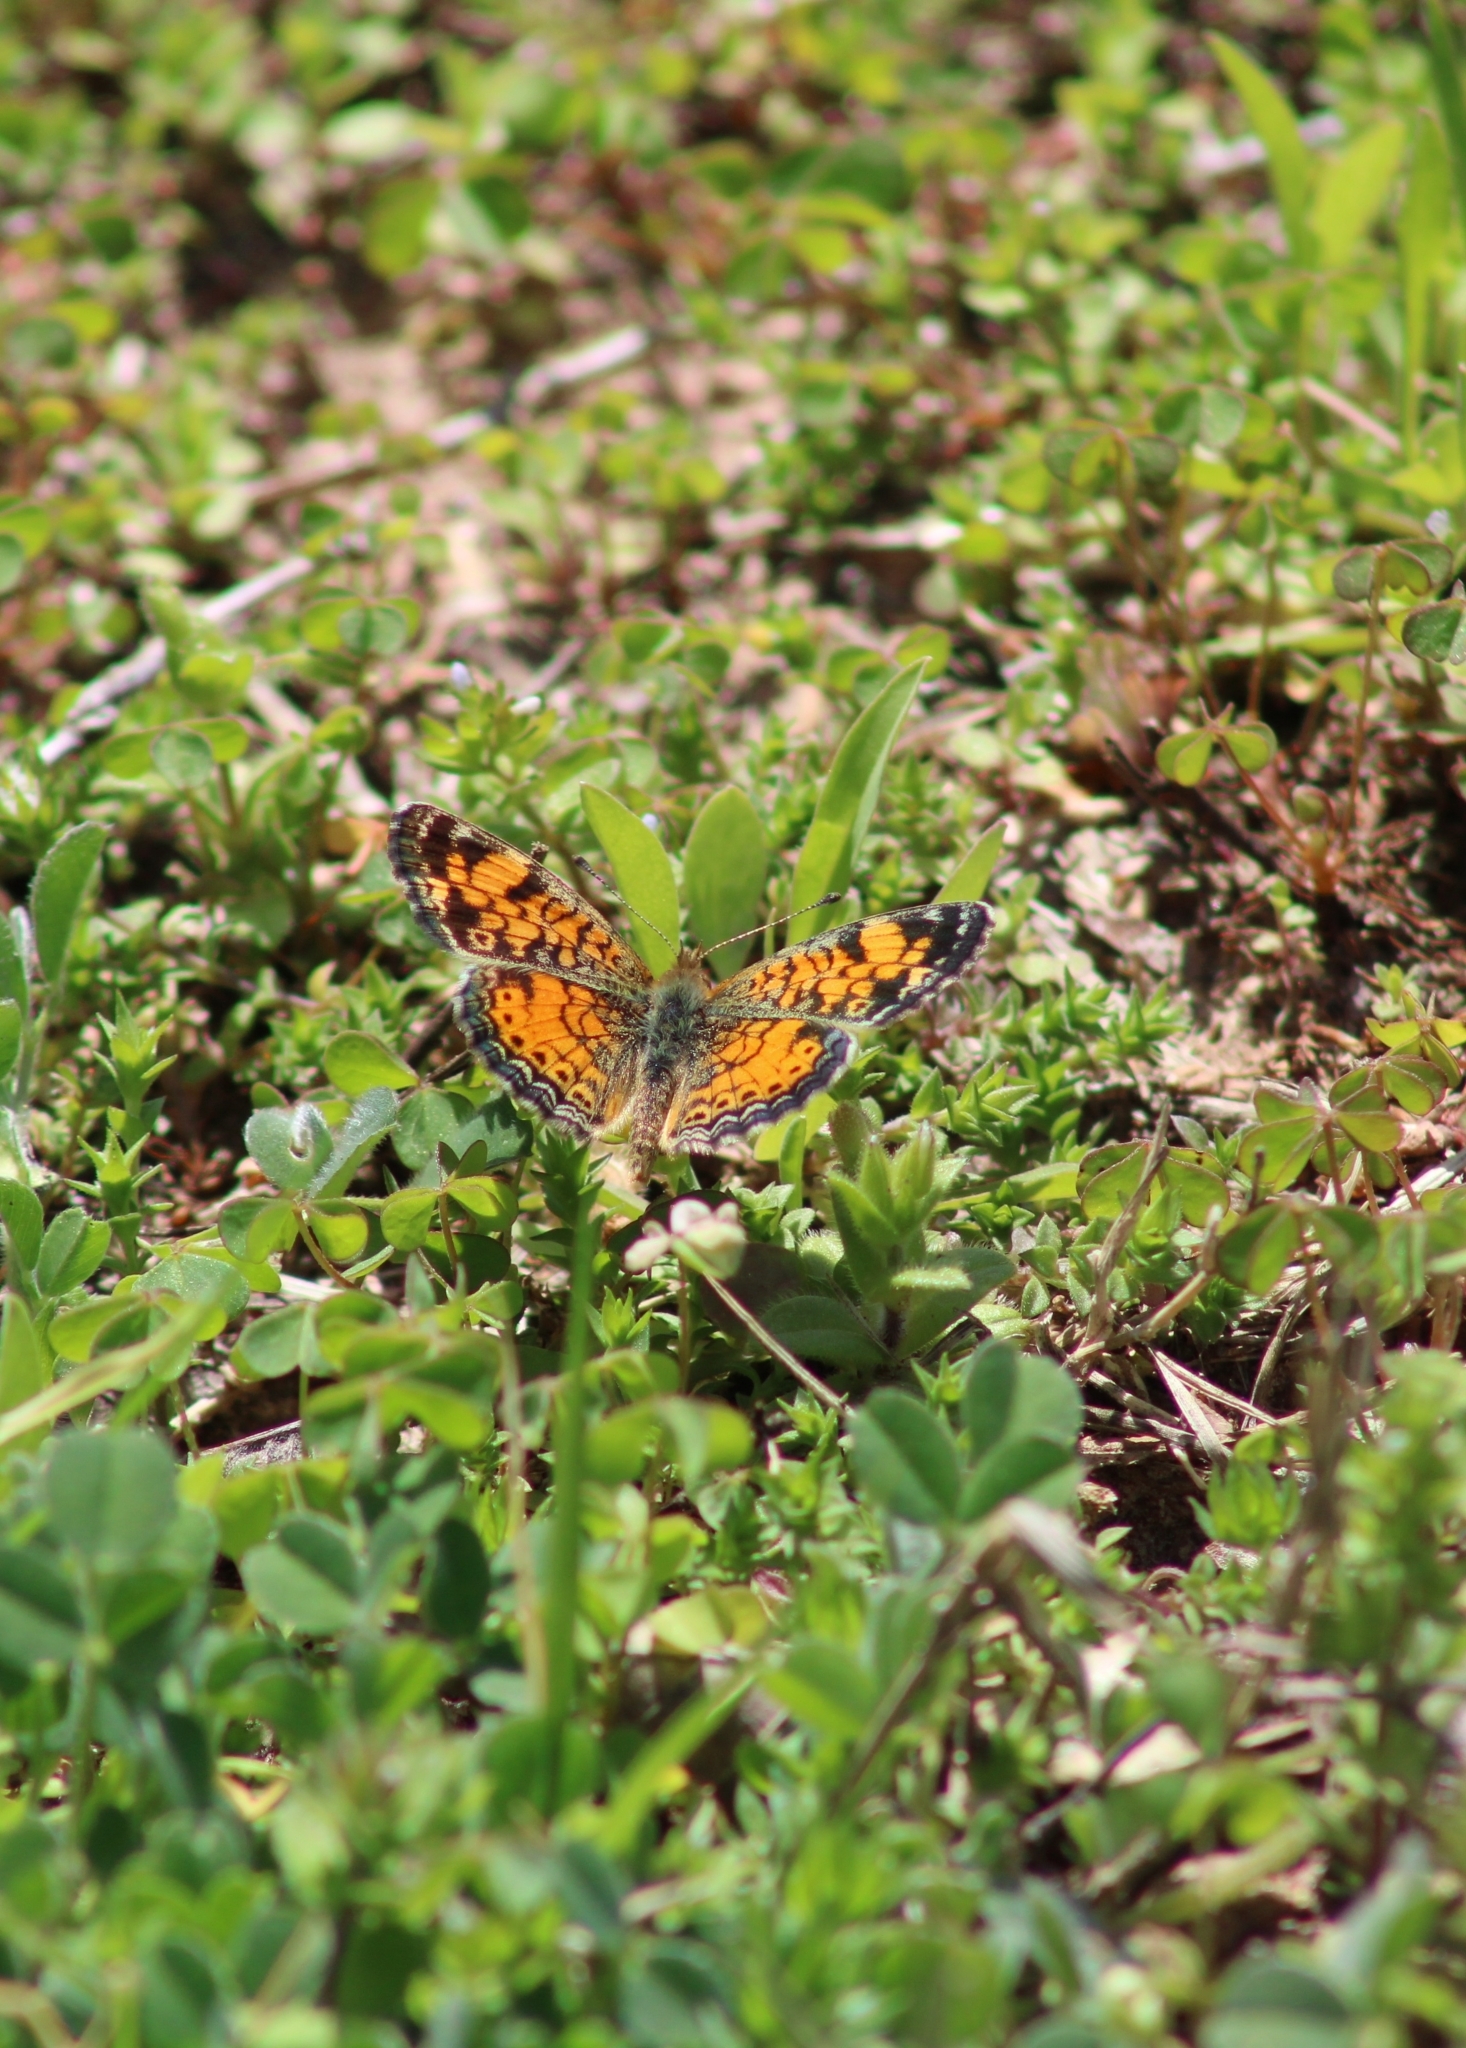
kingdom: Animalia
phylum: Arthropoda
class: Insecta
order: Lepidoptera
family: Nymphalidae
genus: Phyciodes
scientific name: Phyciodes tharos
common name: Pearl crescent
